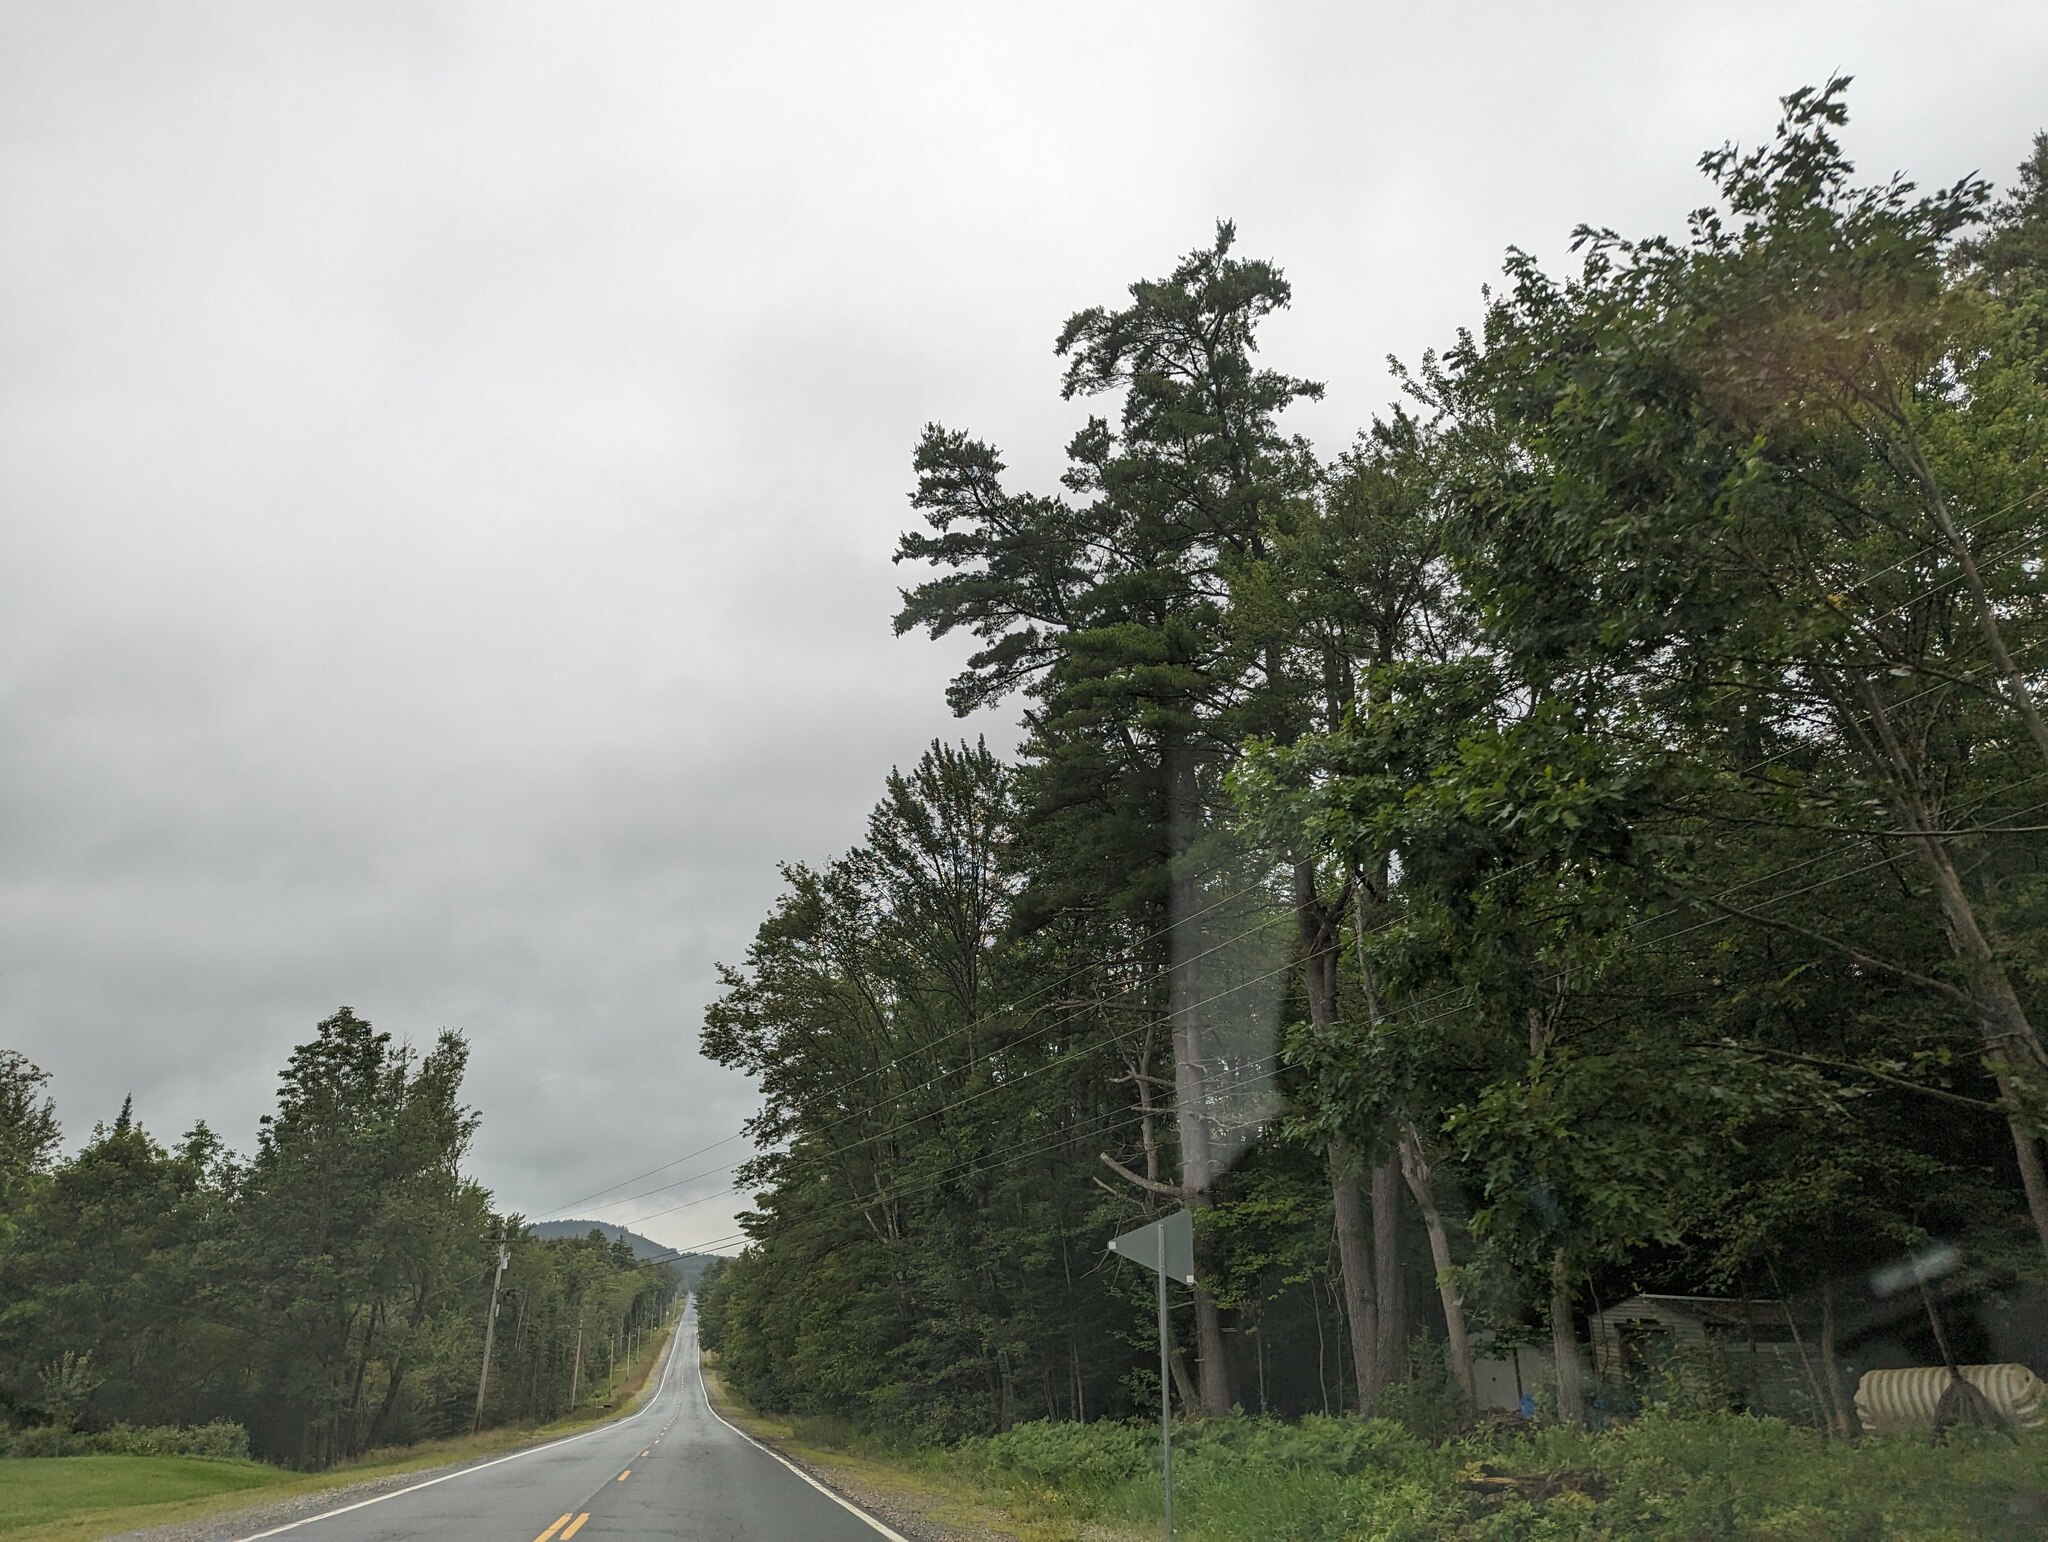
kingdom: Plantae
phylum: Tracheophyta
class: Pinopsida
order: Pinales
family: Pinaceae
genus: Pinus
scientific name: Pinus strobus
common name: Weymouth pine
